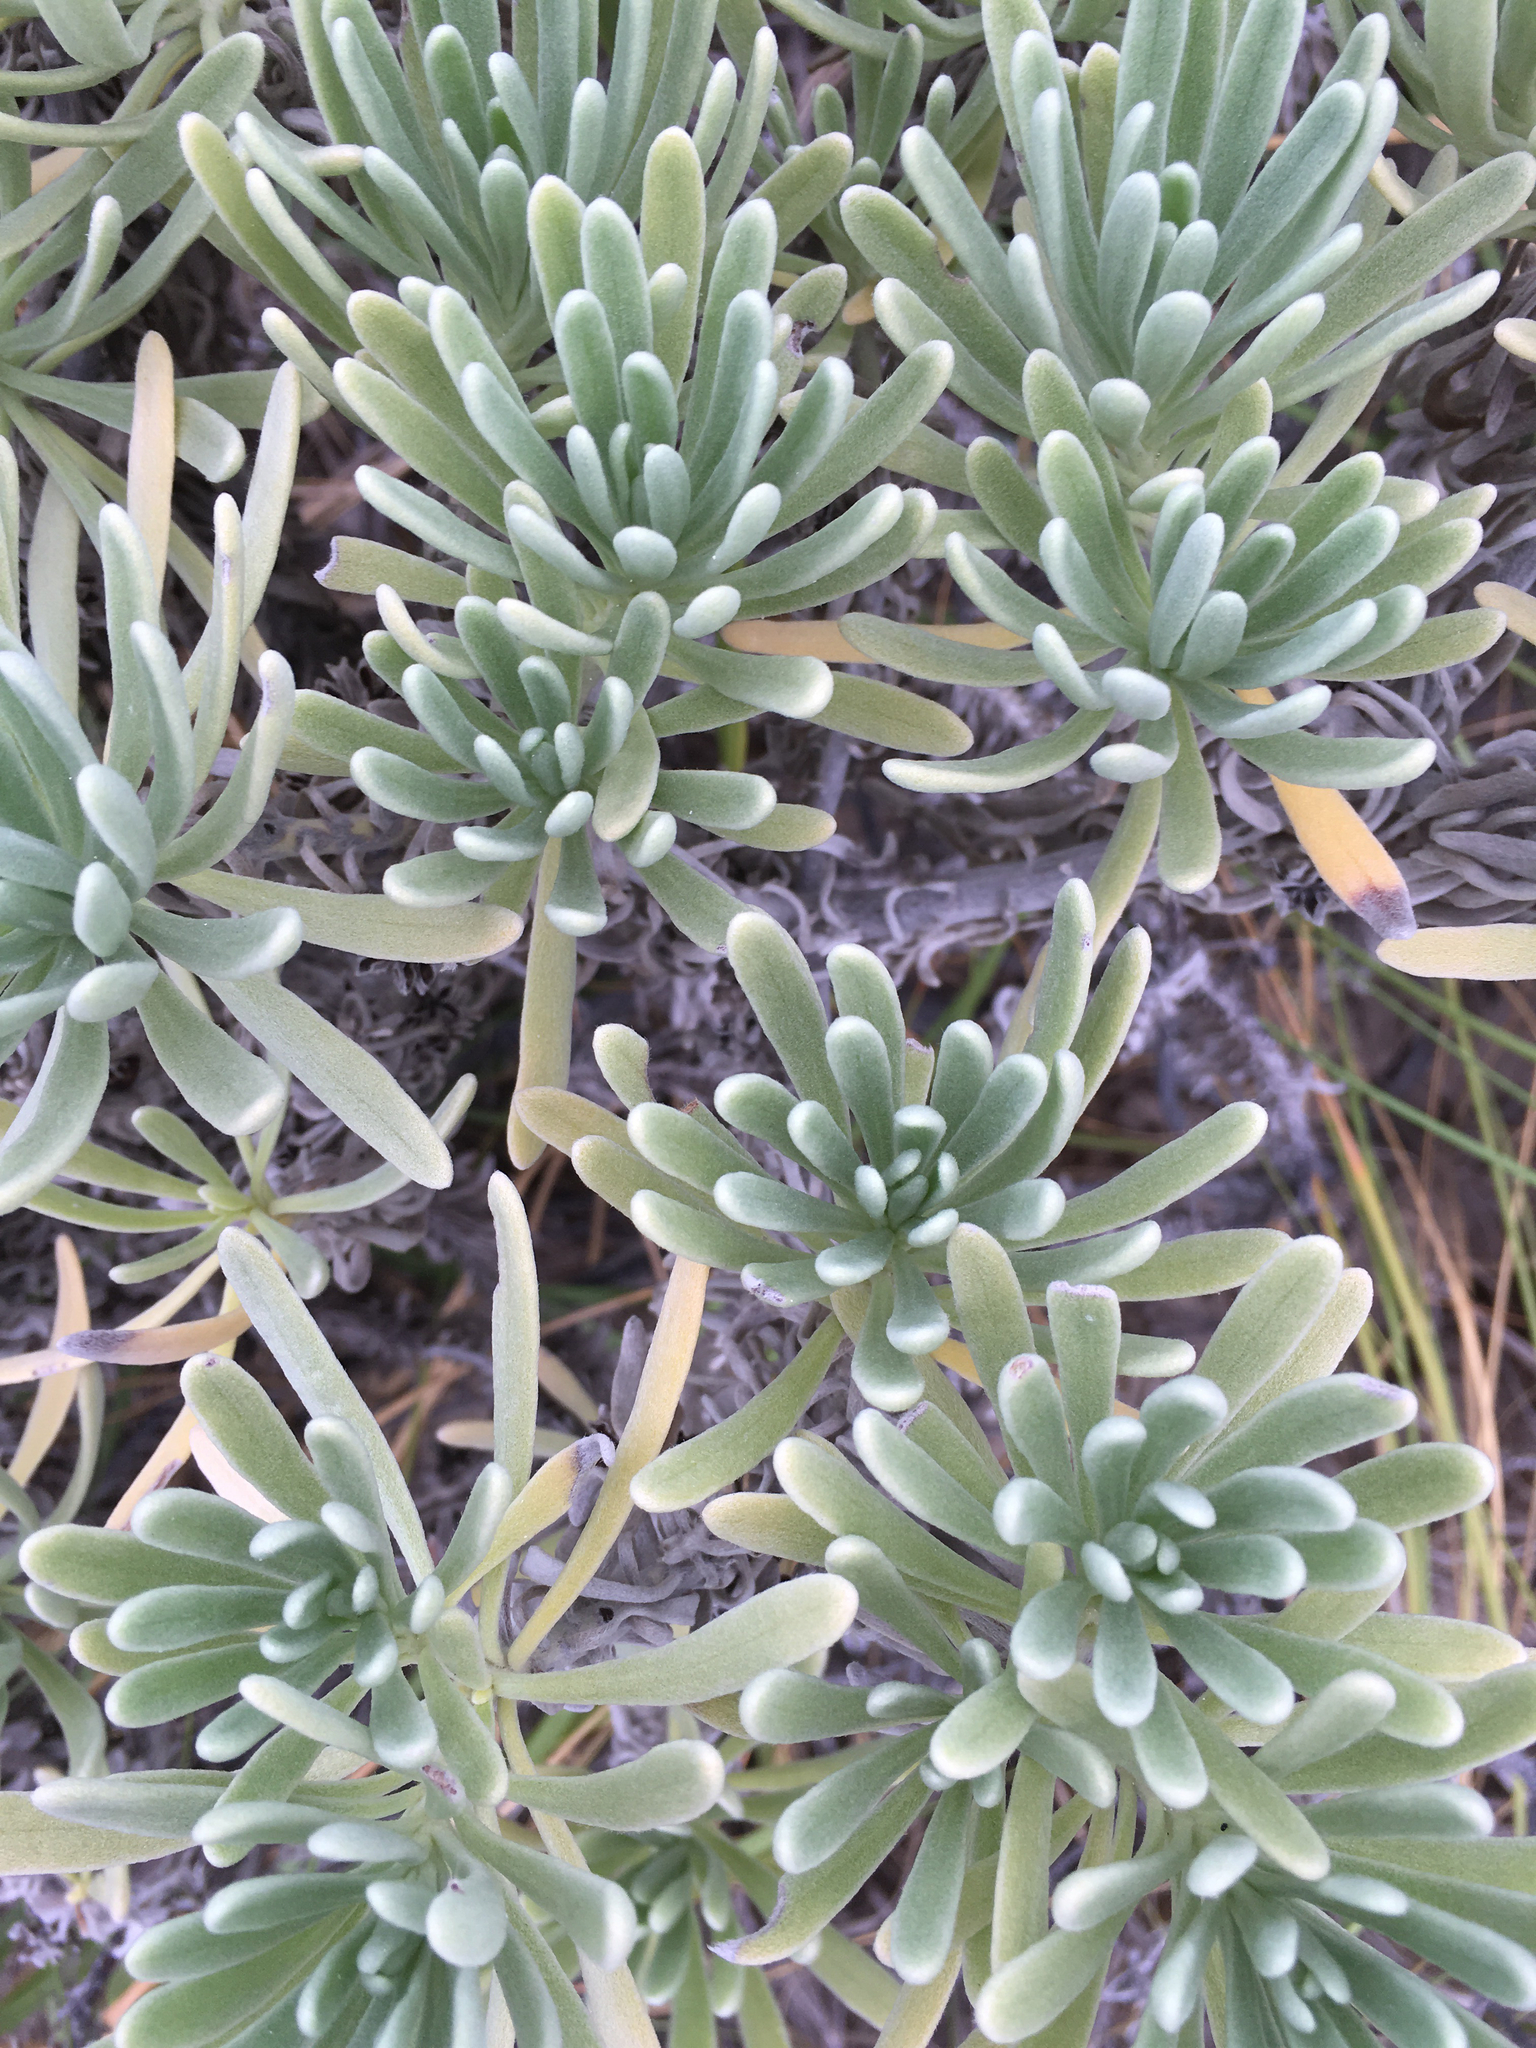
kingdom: Plantae
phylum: Tracheophyta
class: Magnoliopsida
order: Boraginales
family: Heliotropiaceae
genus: Tournefortia
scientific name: Tournefortia gnaphalodes
